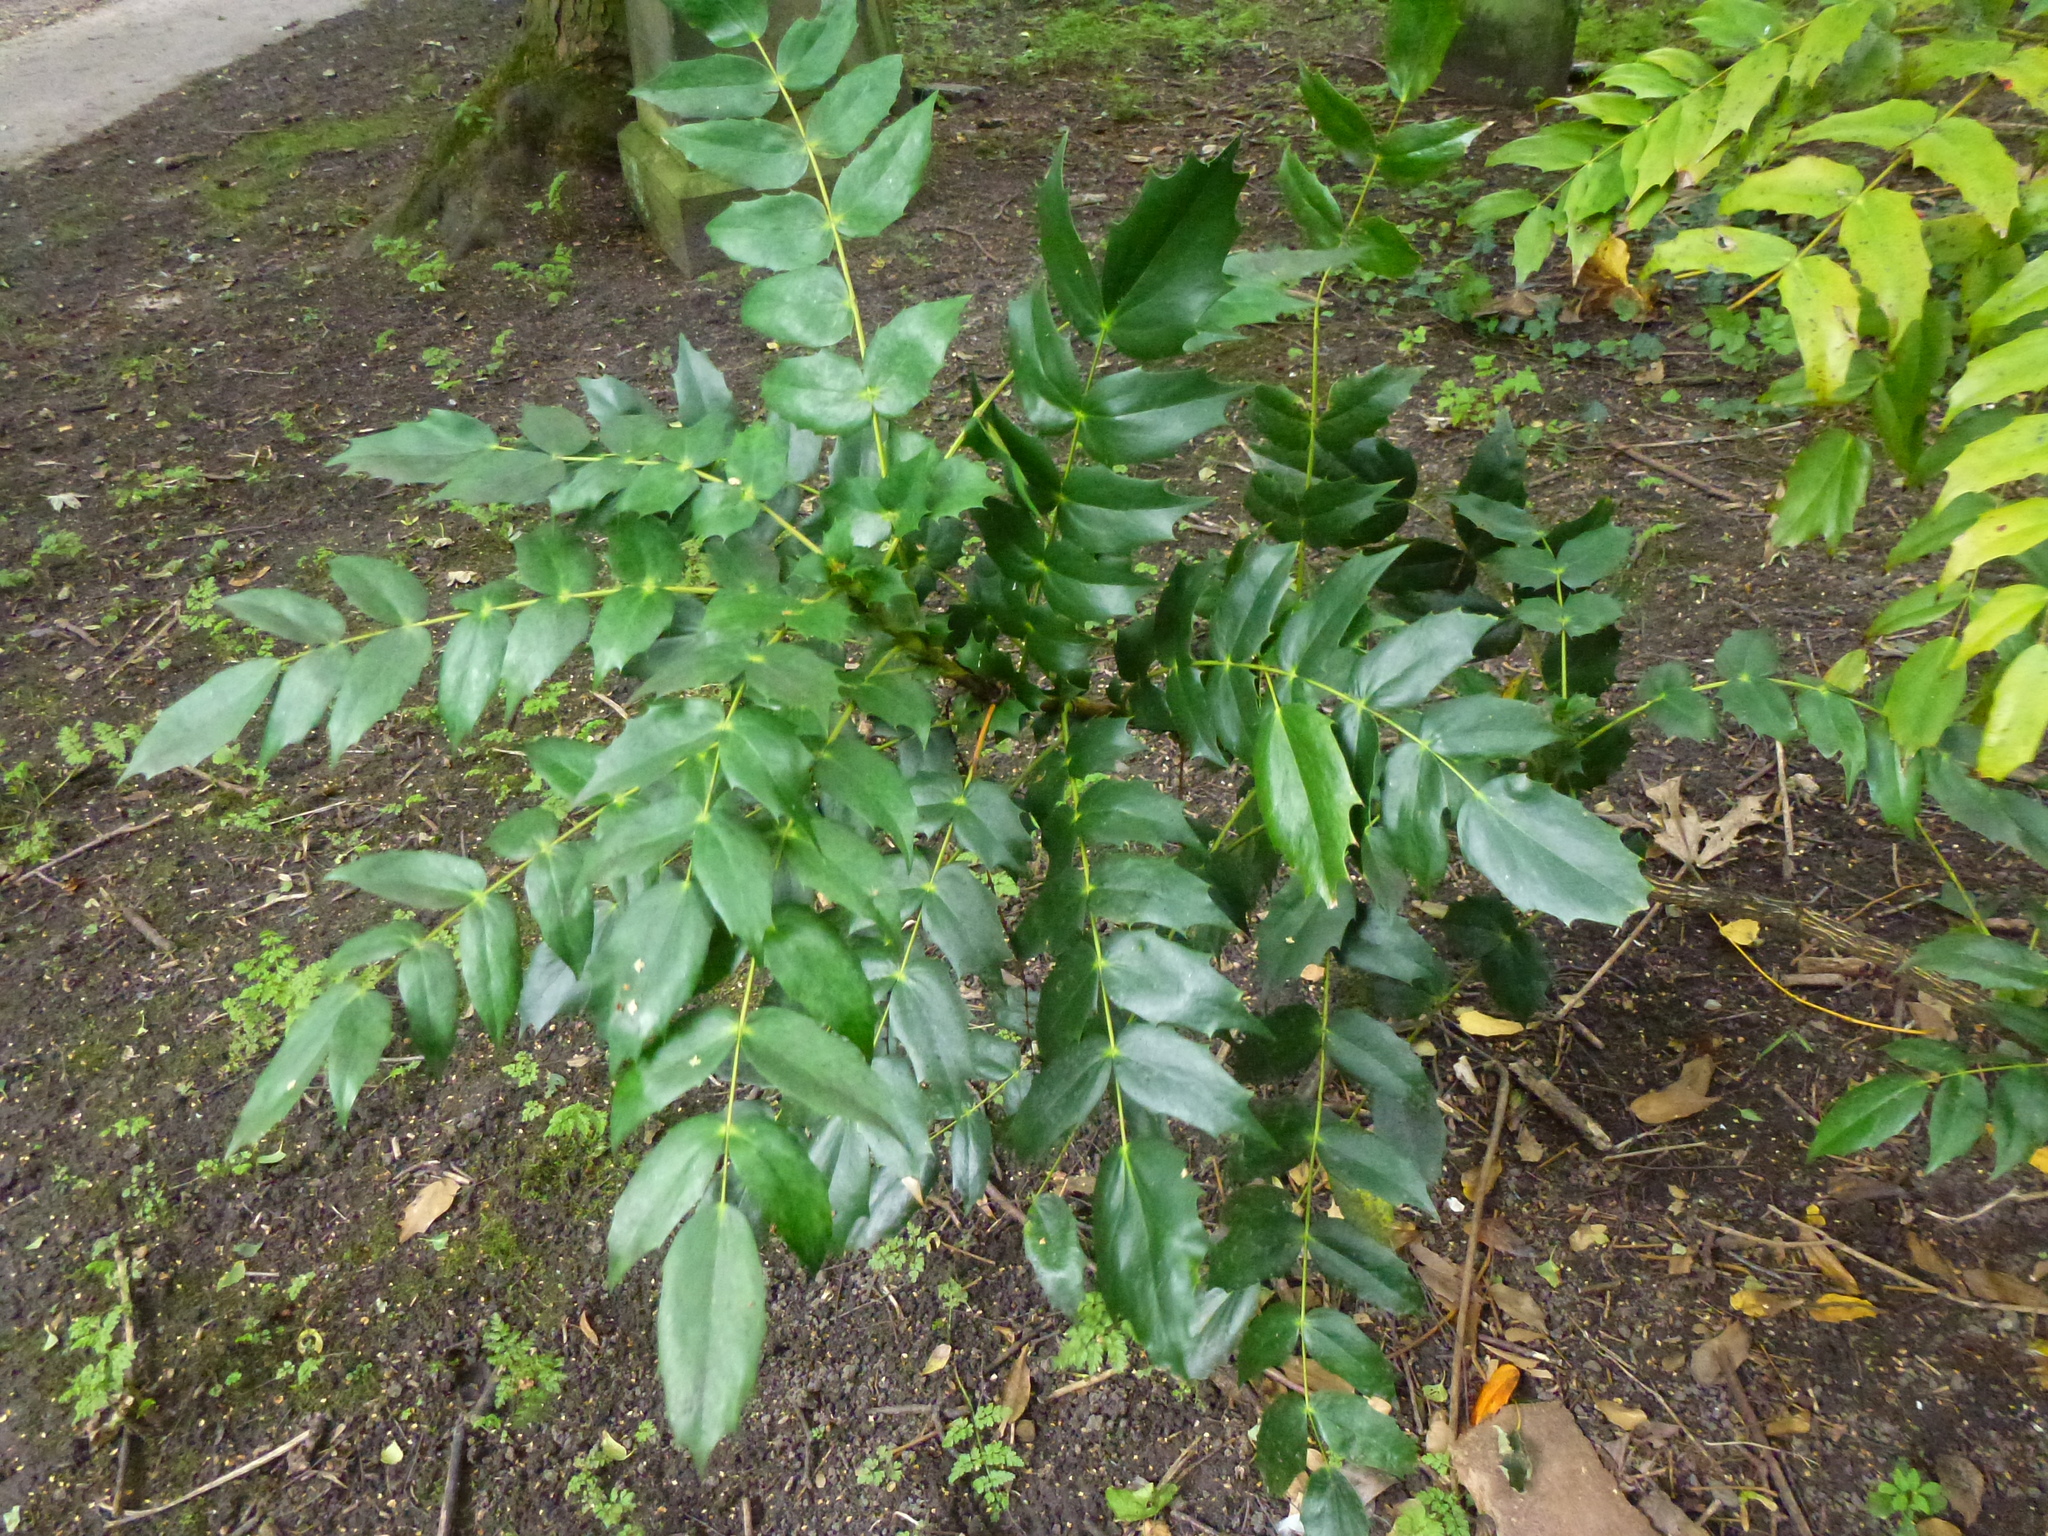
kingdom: Plantae
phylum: Tracheophyta
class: Magnoliopsida
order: Ranunculales
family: Berberidaceae
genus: Mahonia
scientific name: Mahonia aquifolium
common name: Oregon-grape
